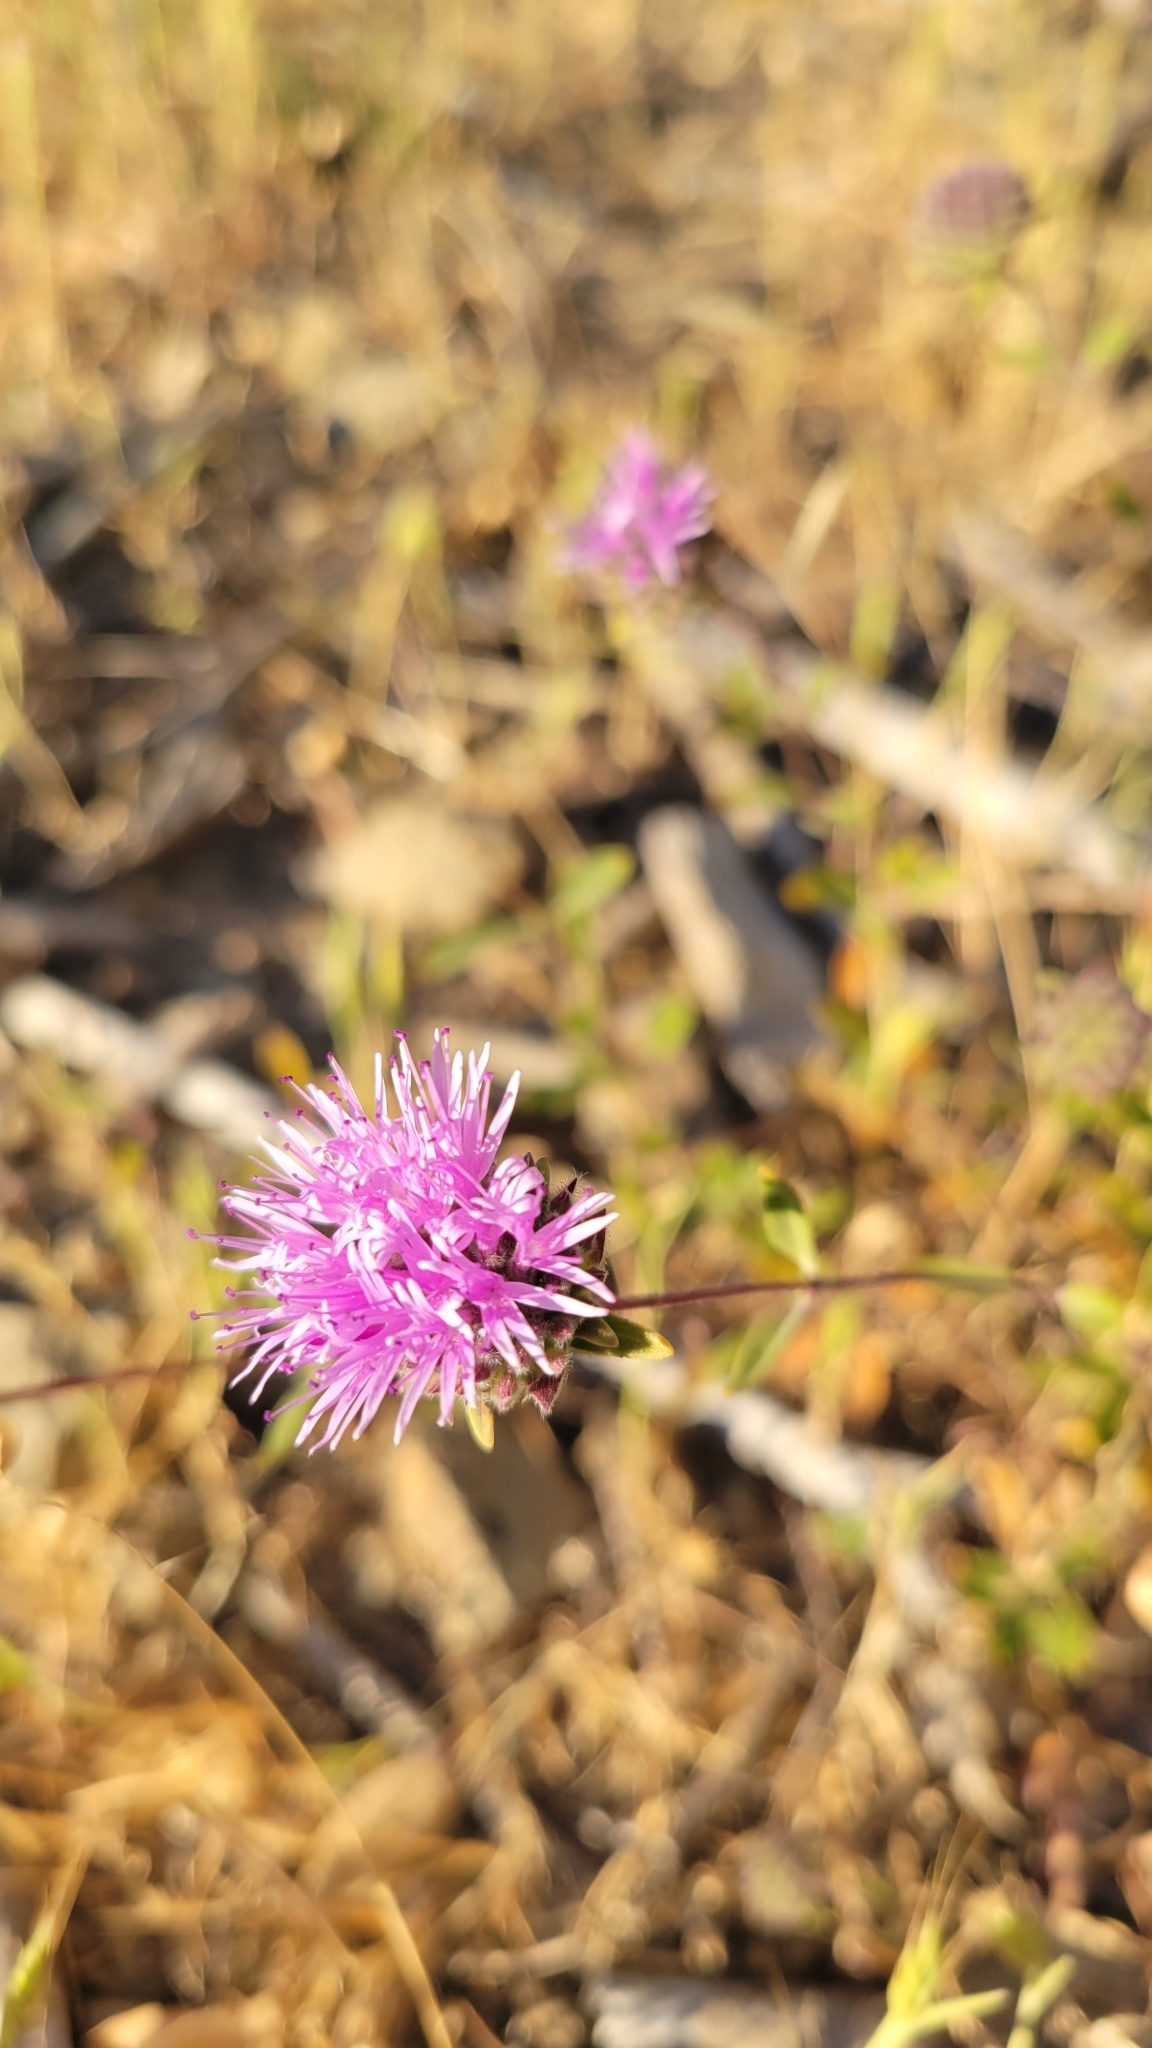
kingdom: Plantae
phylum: Tracheophyta
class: Magnoliopsida
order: Lamiales
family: Lamiaceae
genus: Monardella
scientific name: Monardella odoratissima
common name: Pacific monardella
